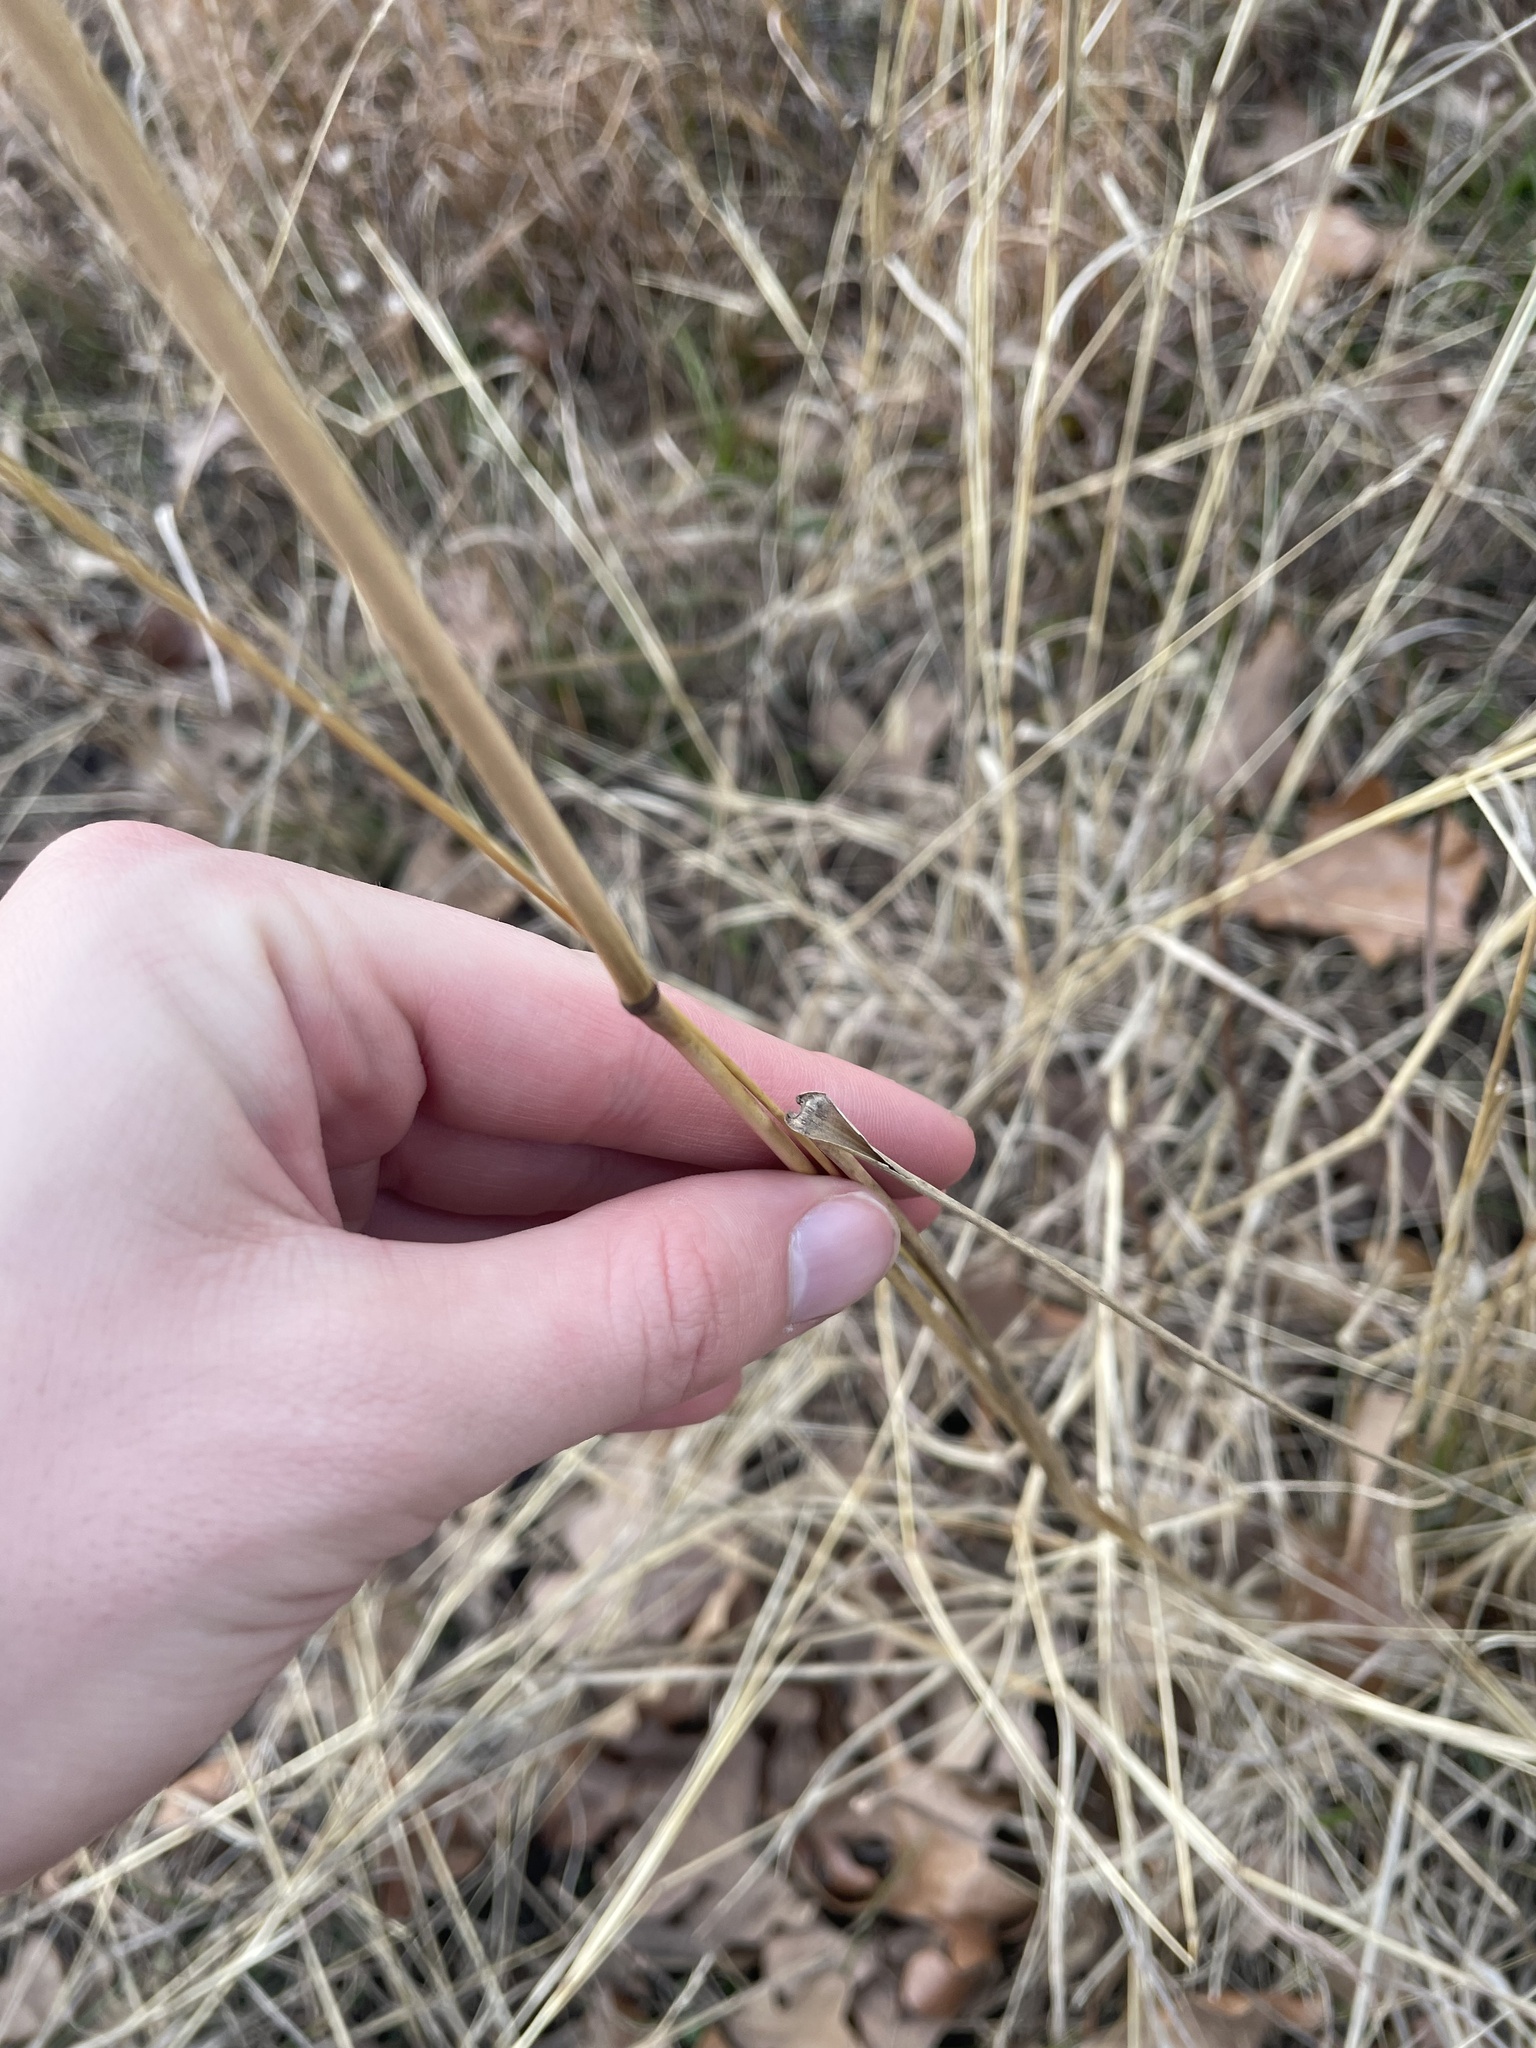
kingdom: Plantae
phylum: Tracheophyta
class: Liliopsida
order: Poales
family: Poaceae
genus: Tridens
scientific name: Tridens strictus
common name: Long-spike tridens
